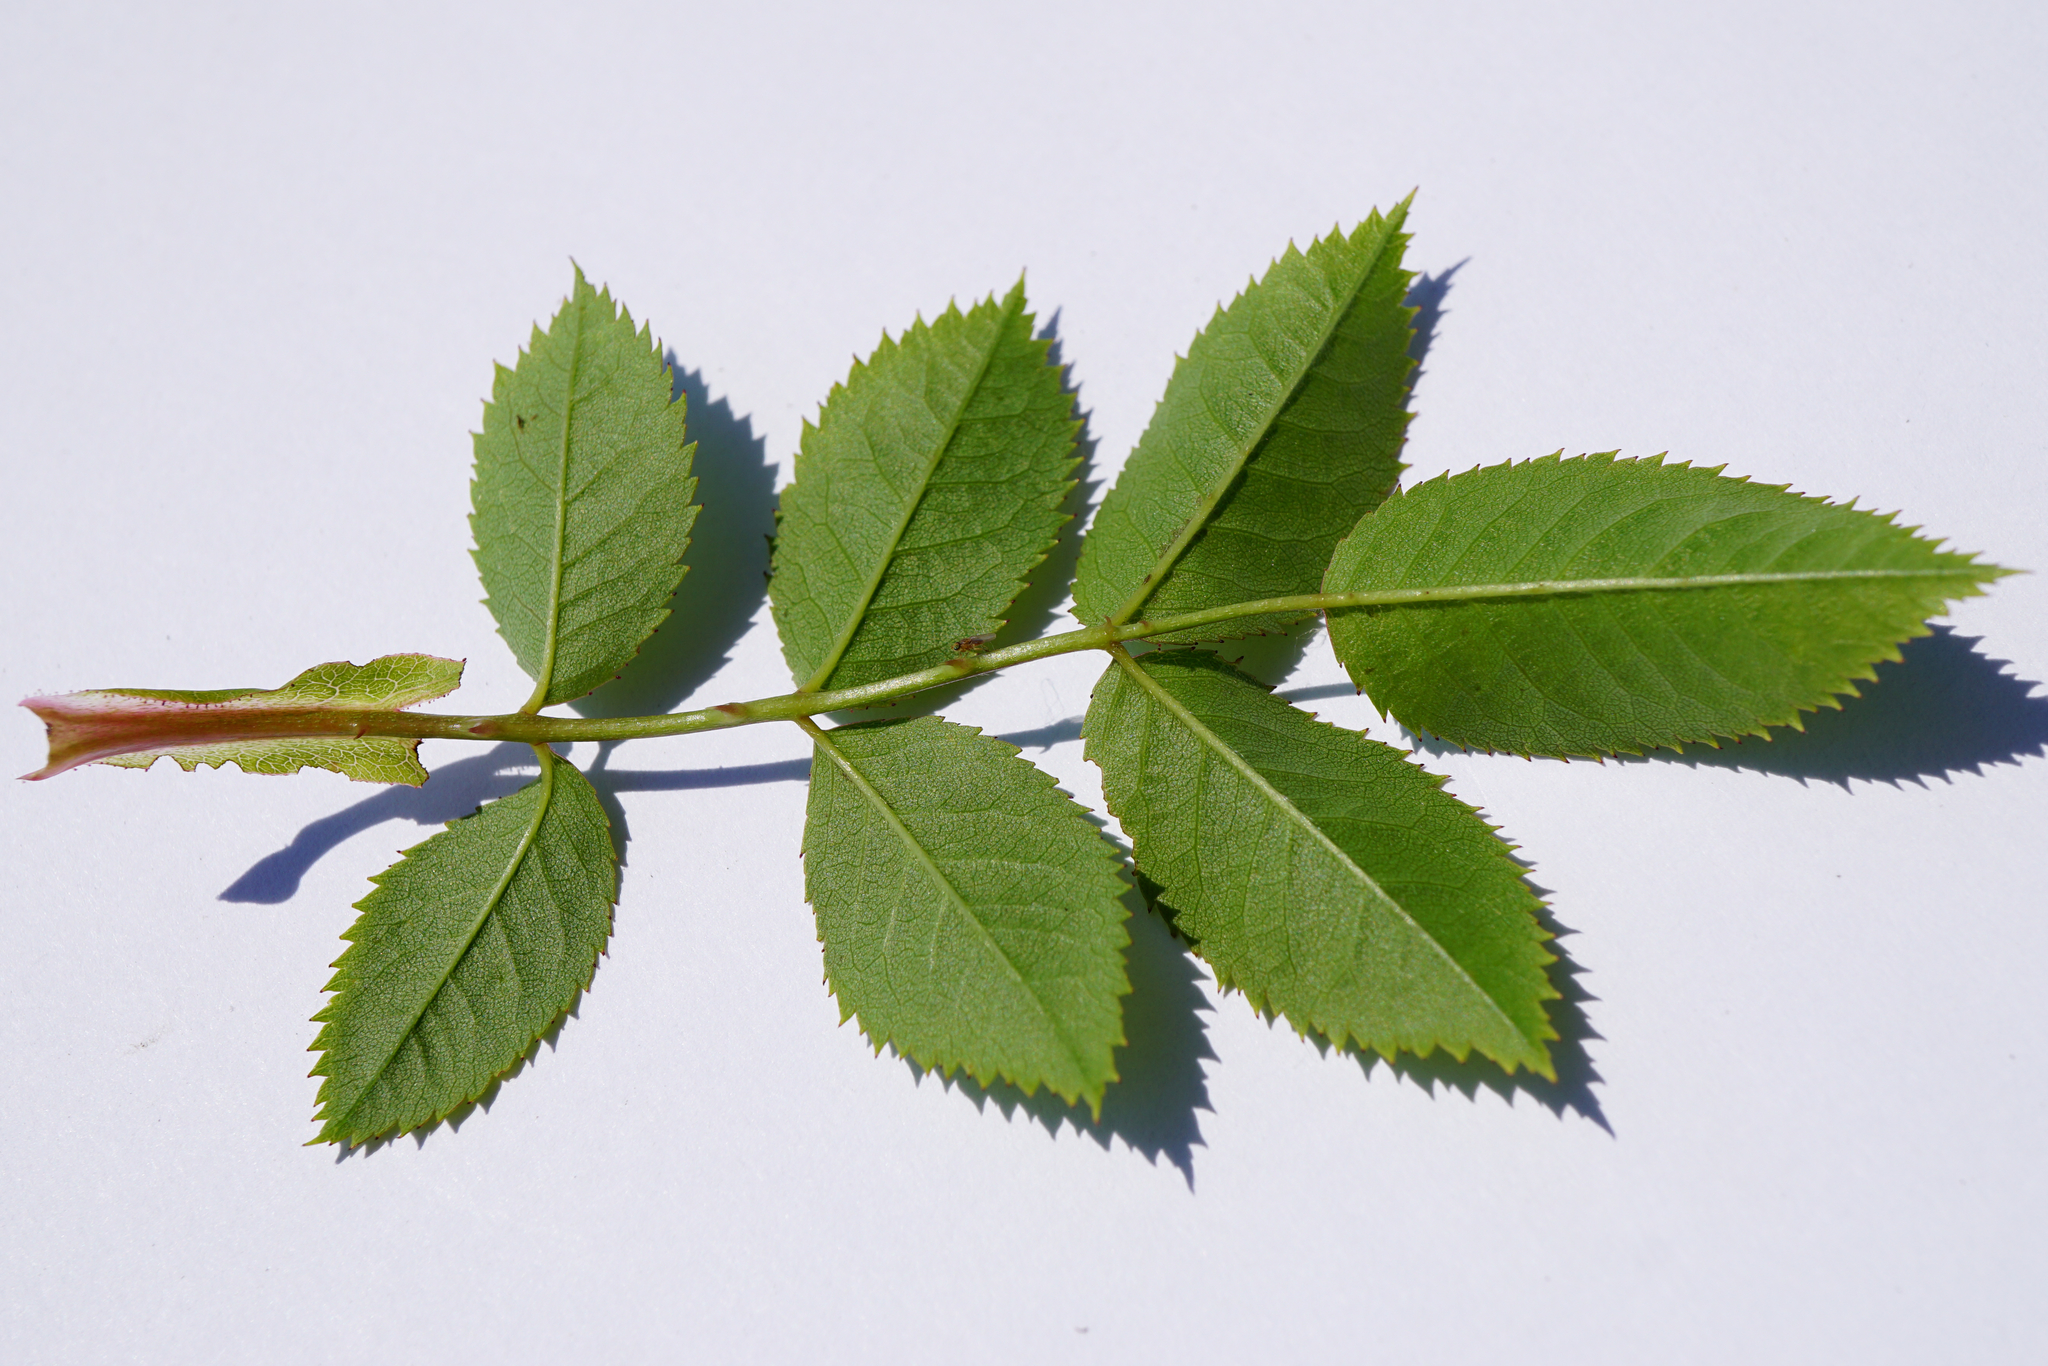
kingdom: Plantae
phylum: Tracheophyta
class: Magnoliopsida
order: Rosales
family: Rosaceae
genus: Rosa
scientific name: Rosa canina
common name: Dog rose
